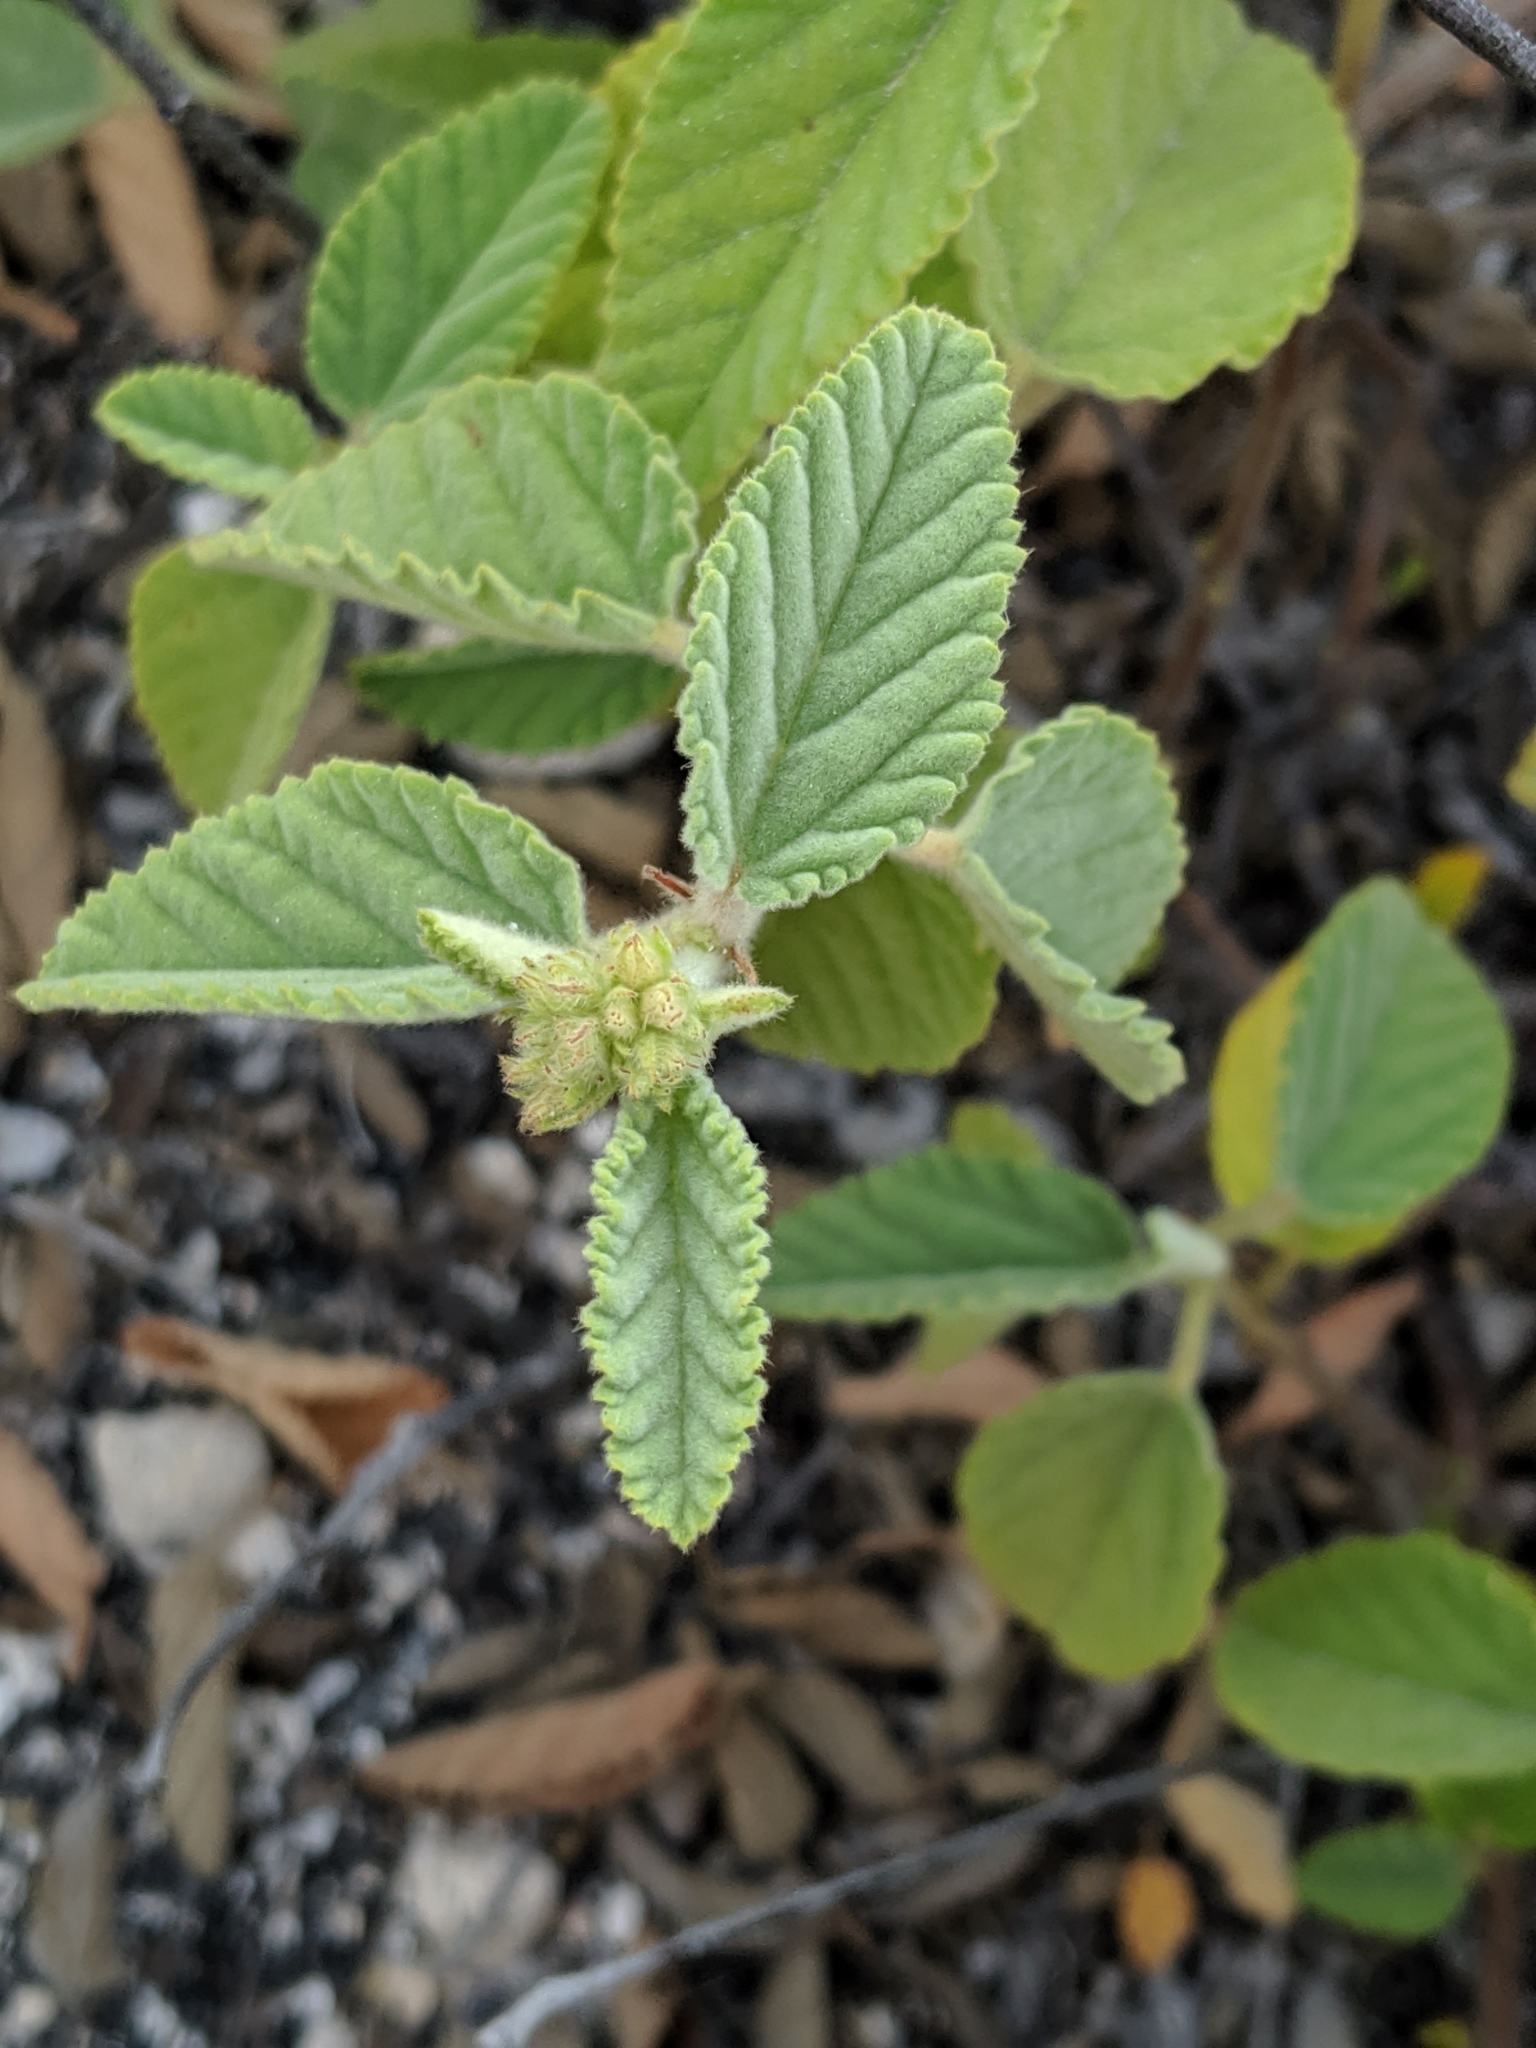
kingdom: Plantae
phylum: Tracheophyta
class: Magnoliopsida
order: Malvales
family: Malvaceae
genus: Waltheria
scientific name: Waltheria indica
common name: Leather-coat
